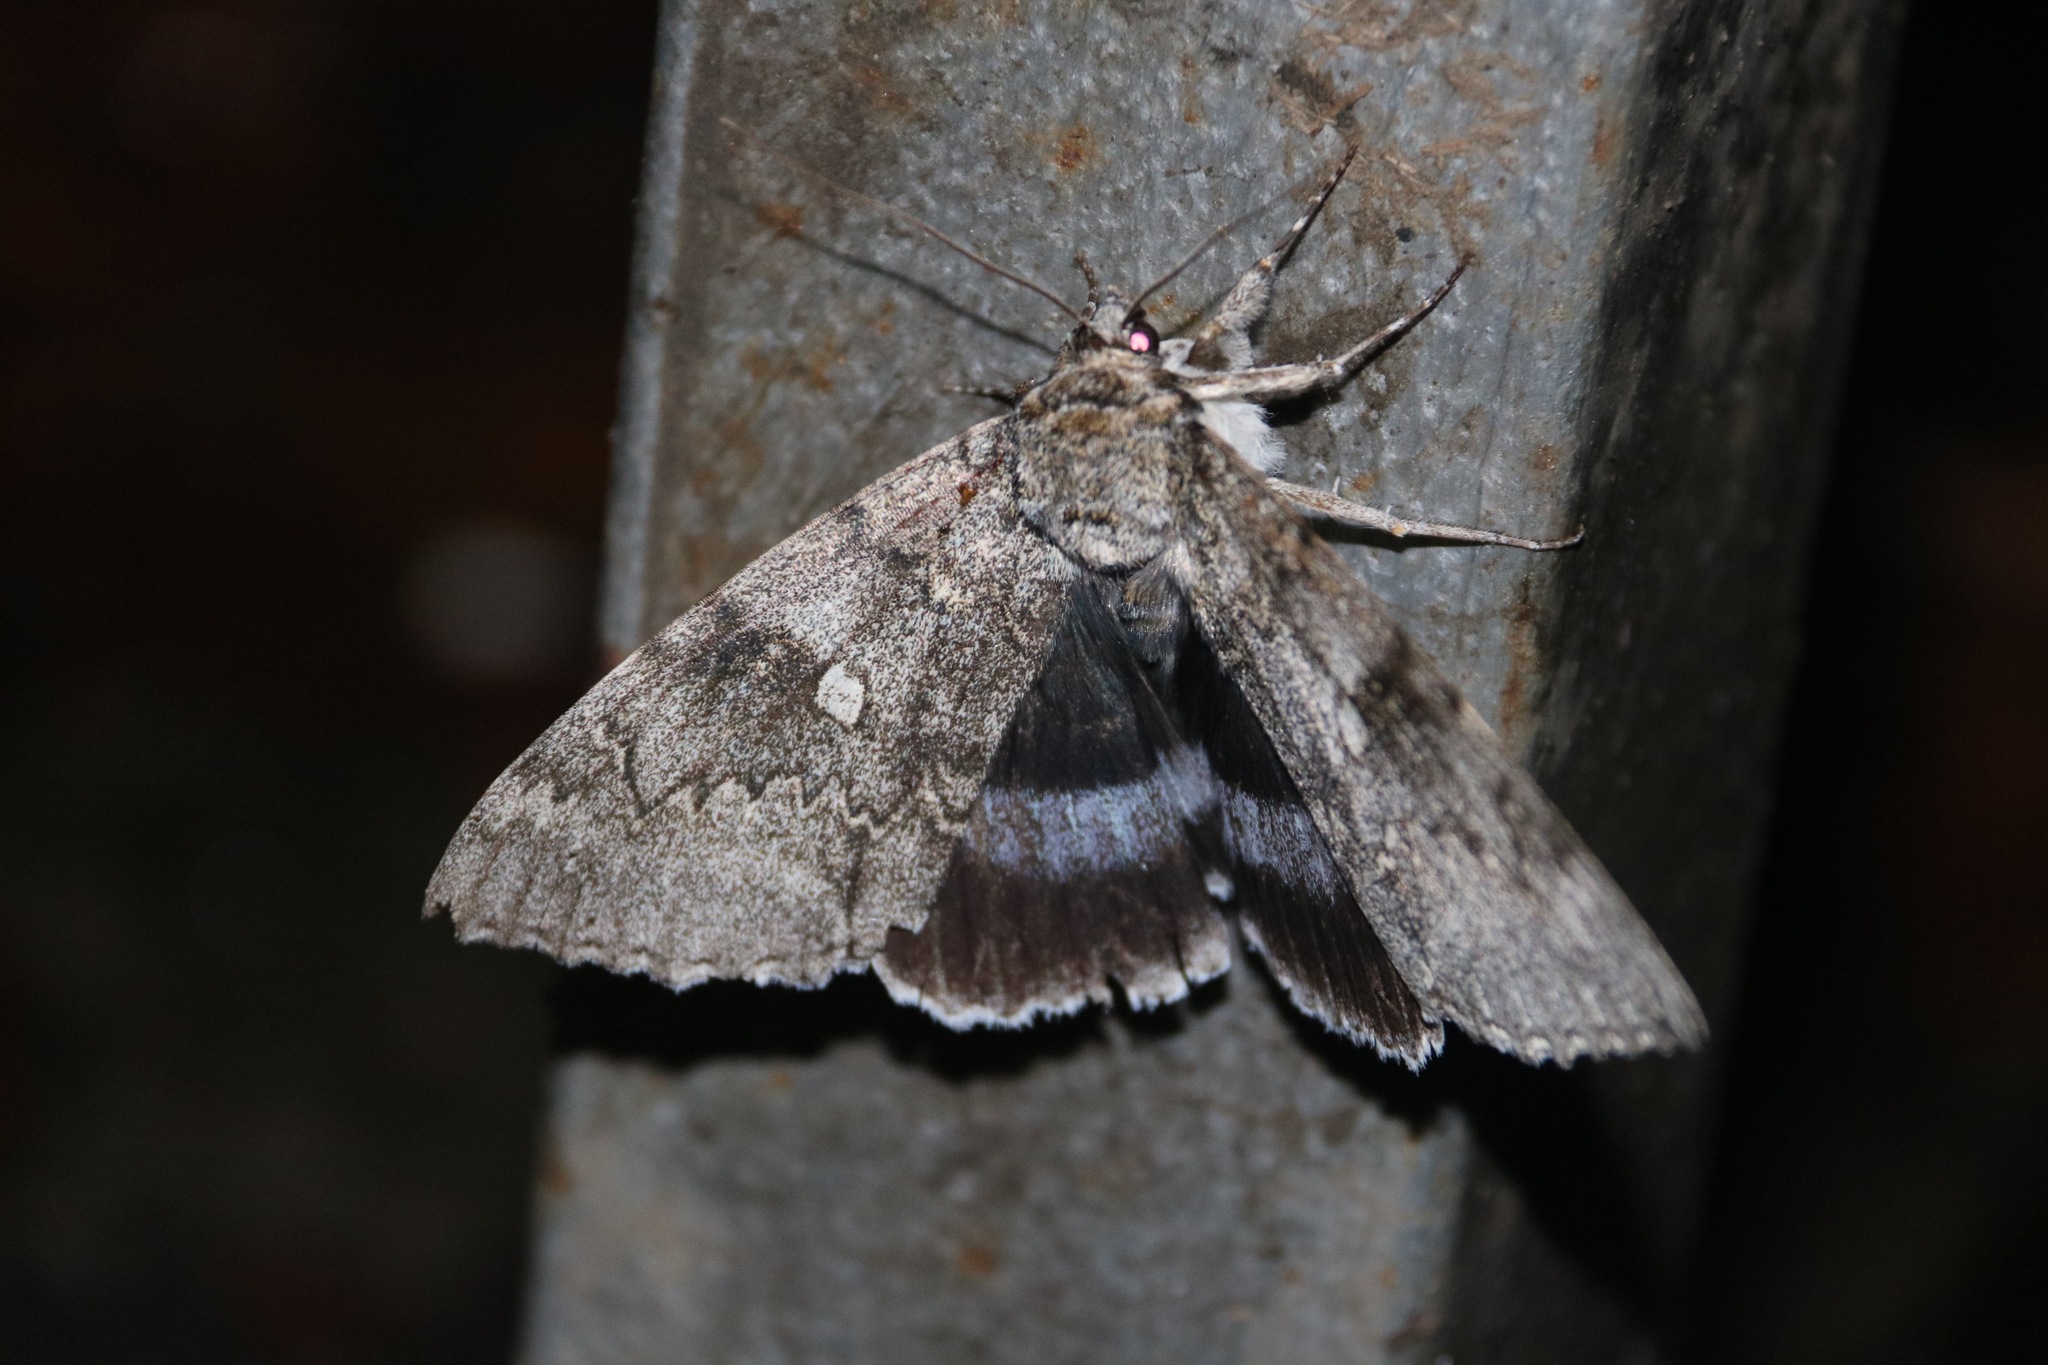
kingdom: Animalia
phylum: Arthropoda
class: Insecta
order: Lepidoptera
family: Erebidae
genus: Catocala
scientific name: Catocala fraxini
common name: Clifden nonpareil
